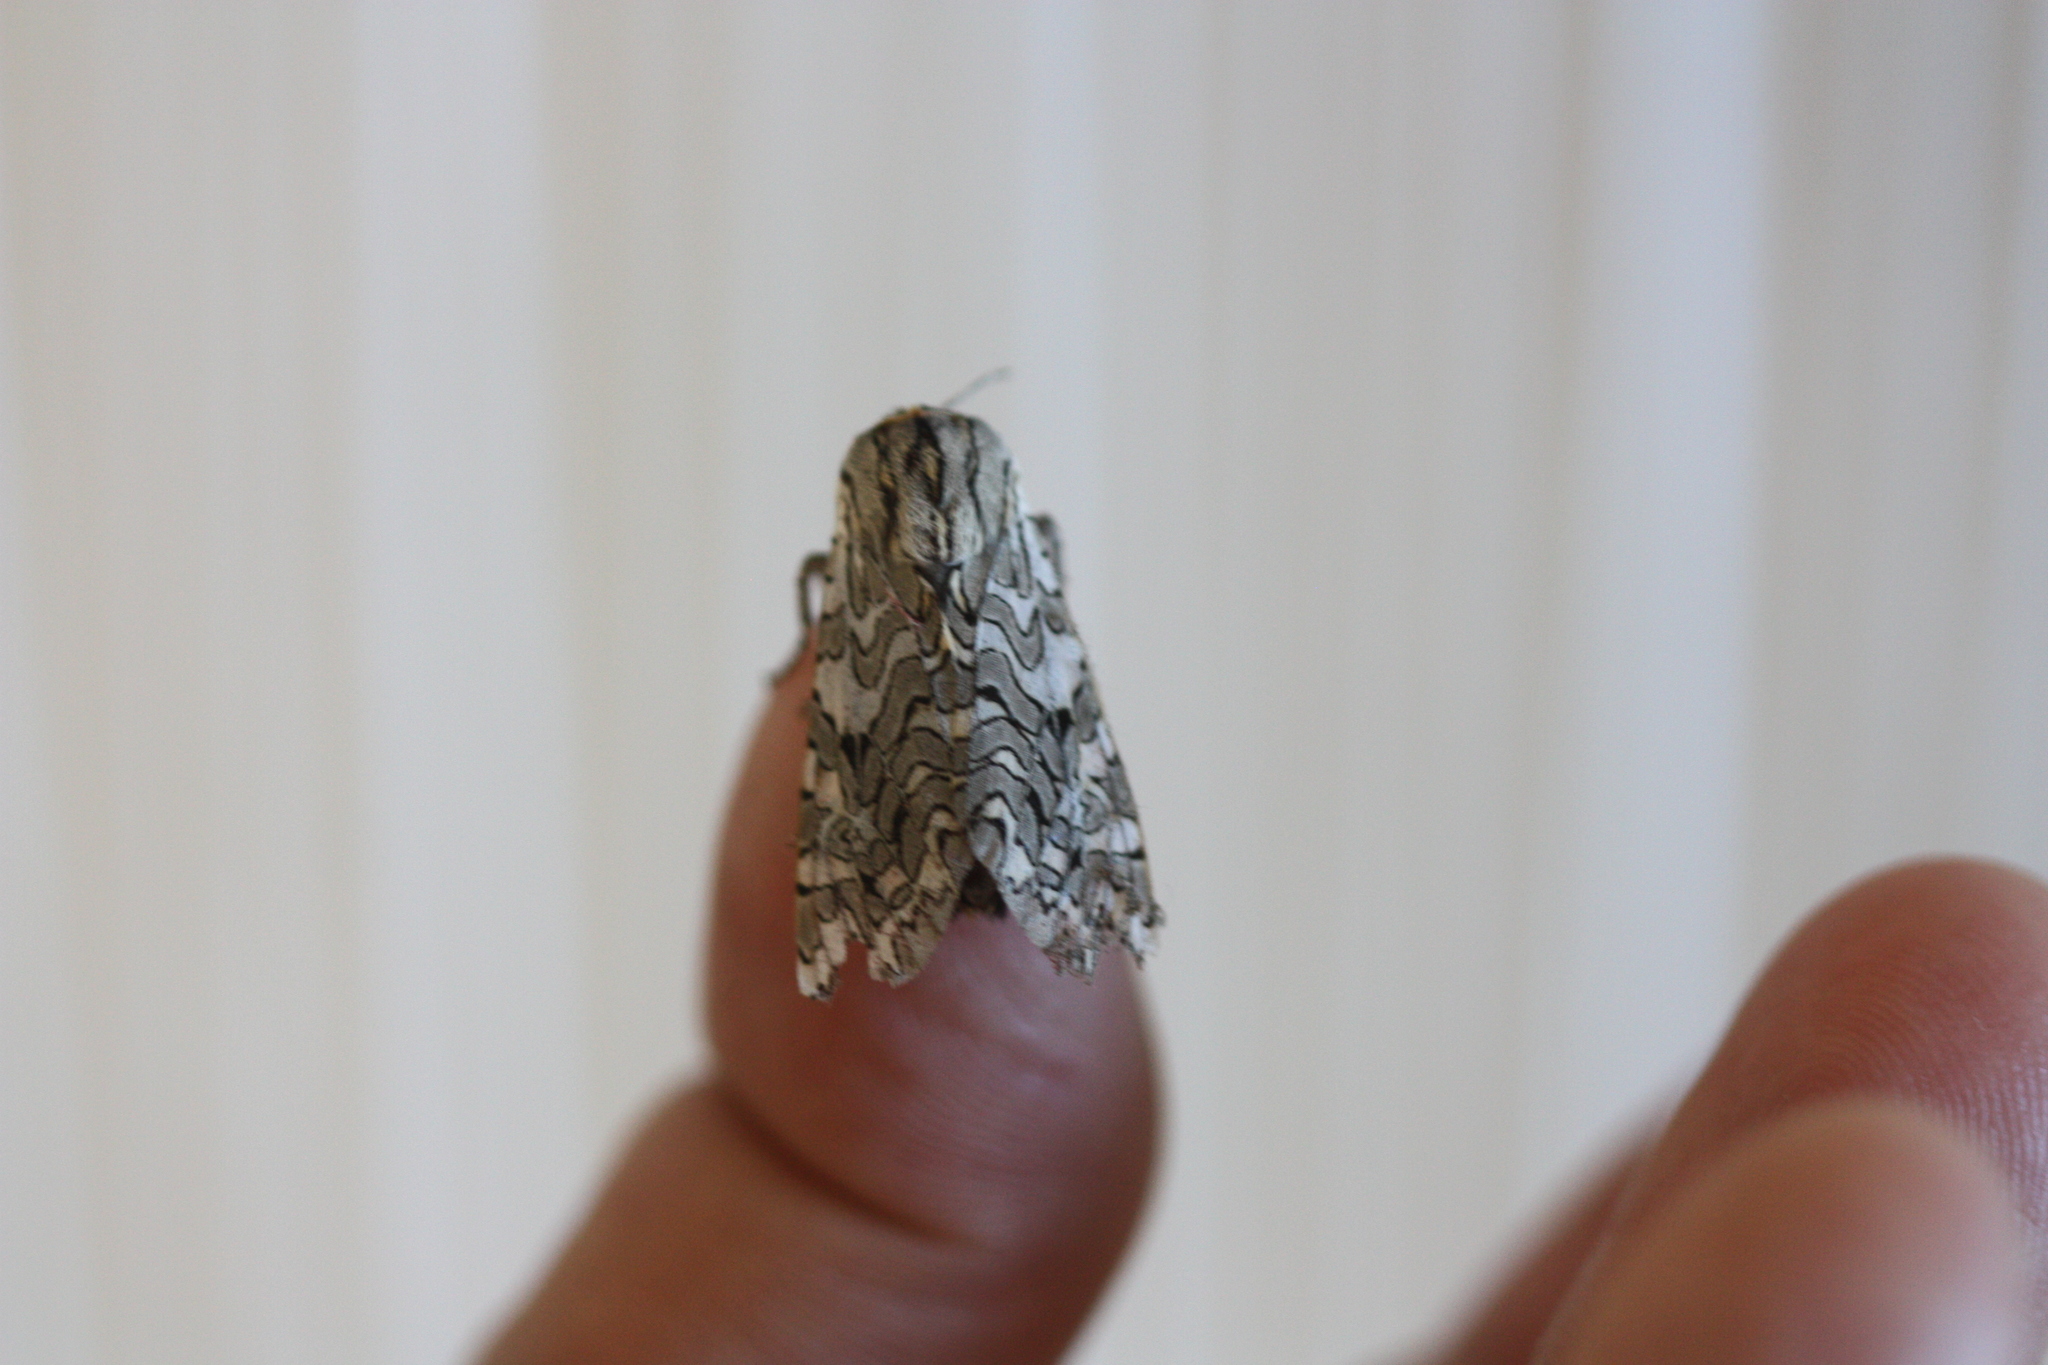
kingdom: Animalia
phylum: Arthropoda
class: Insecta
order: Lepidoptera
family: Erebidae
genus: Arachnis
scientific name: Arachnis picta
